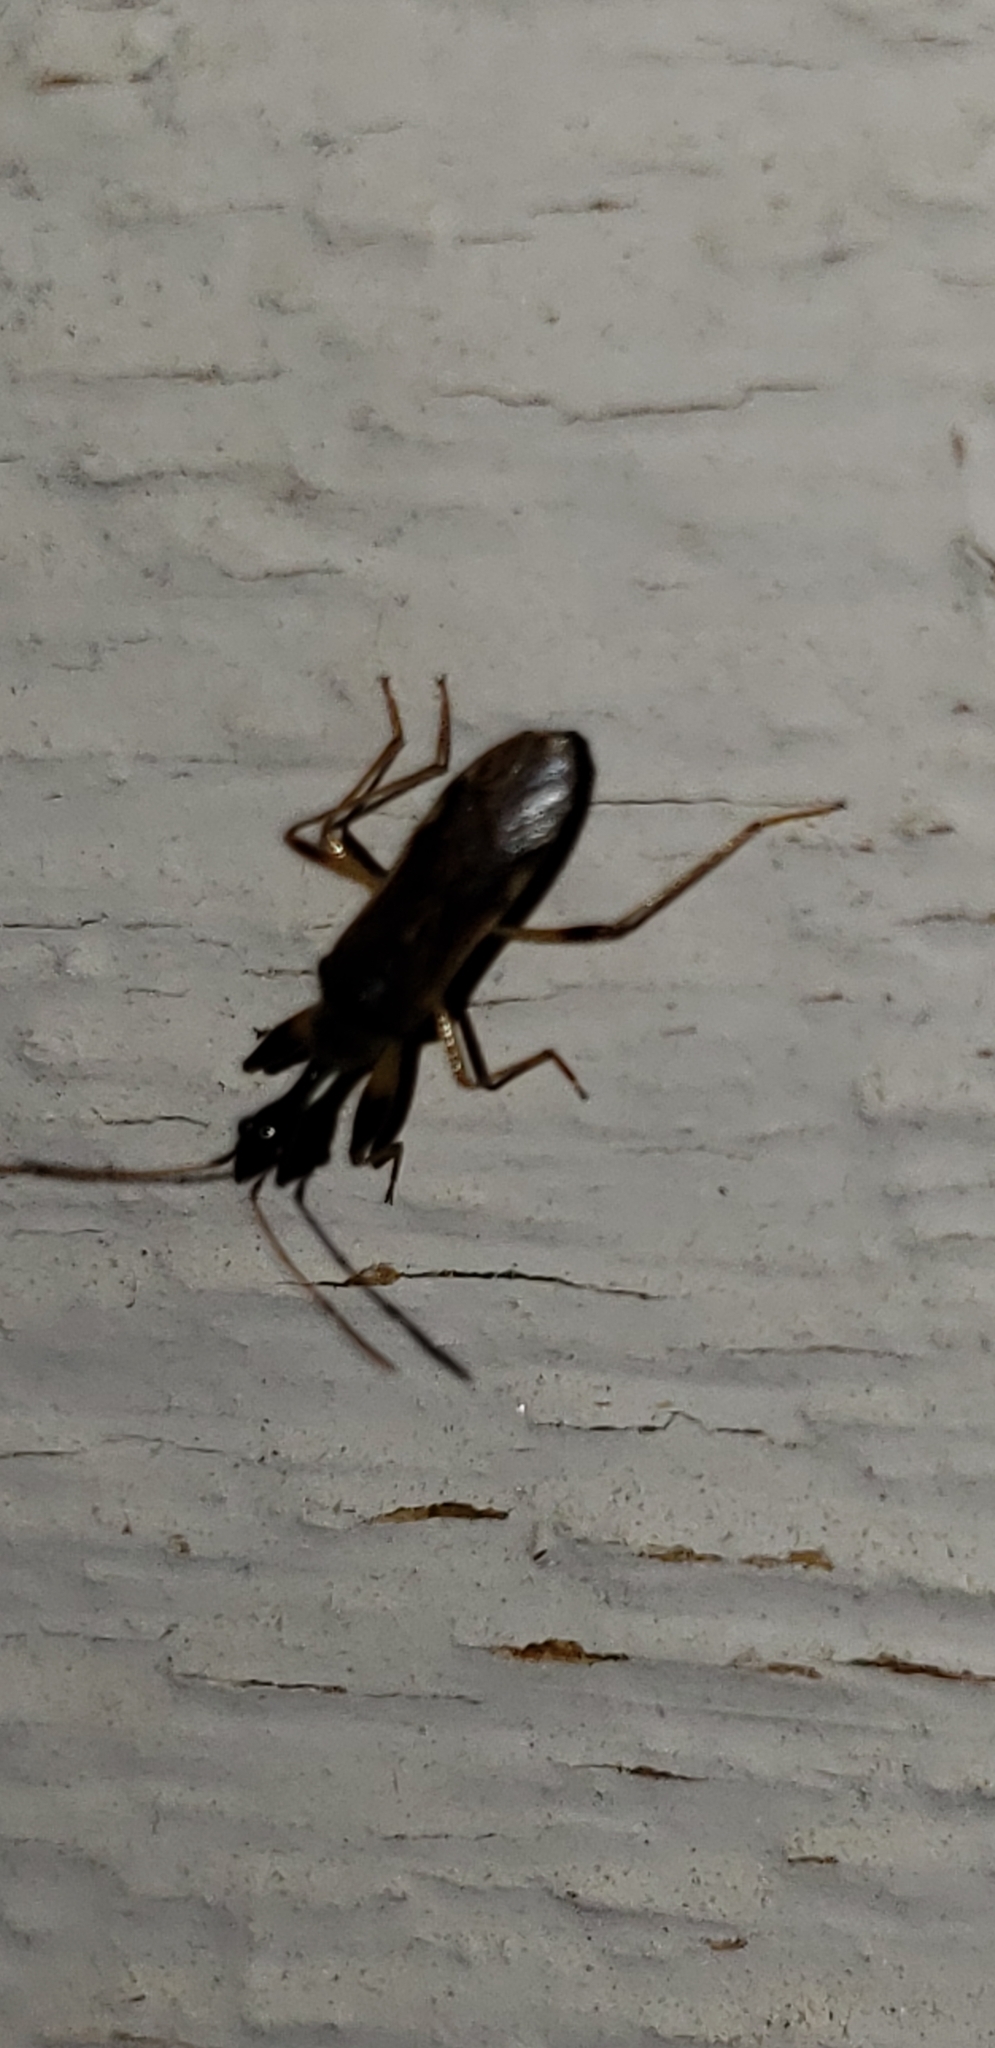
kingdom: Animalia
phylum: Arthropoda
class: Insecta
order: Hemiptera
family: Rhyparochromidae
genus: Myodocha
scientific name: Myodocha serripes
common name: Long-necked seed bug
